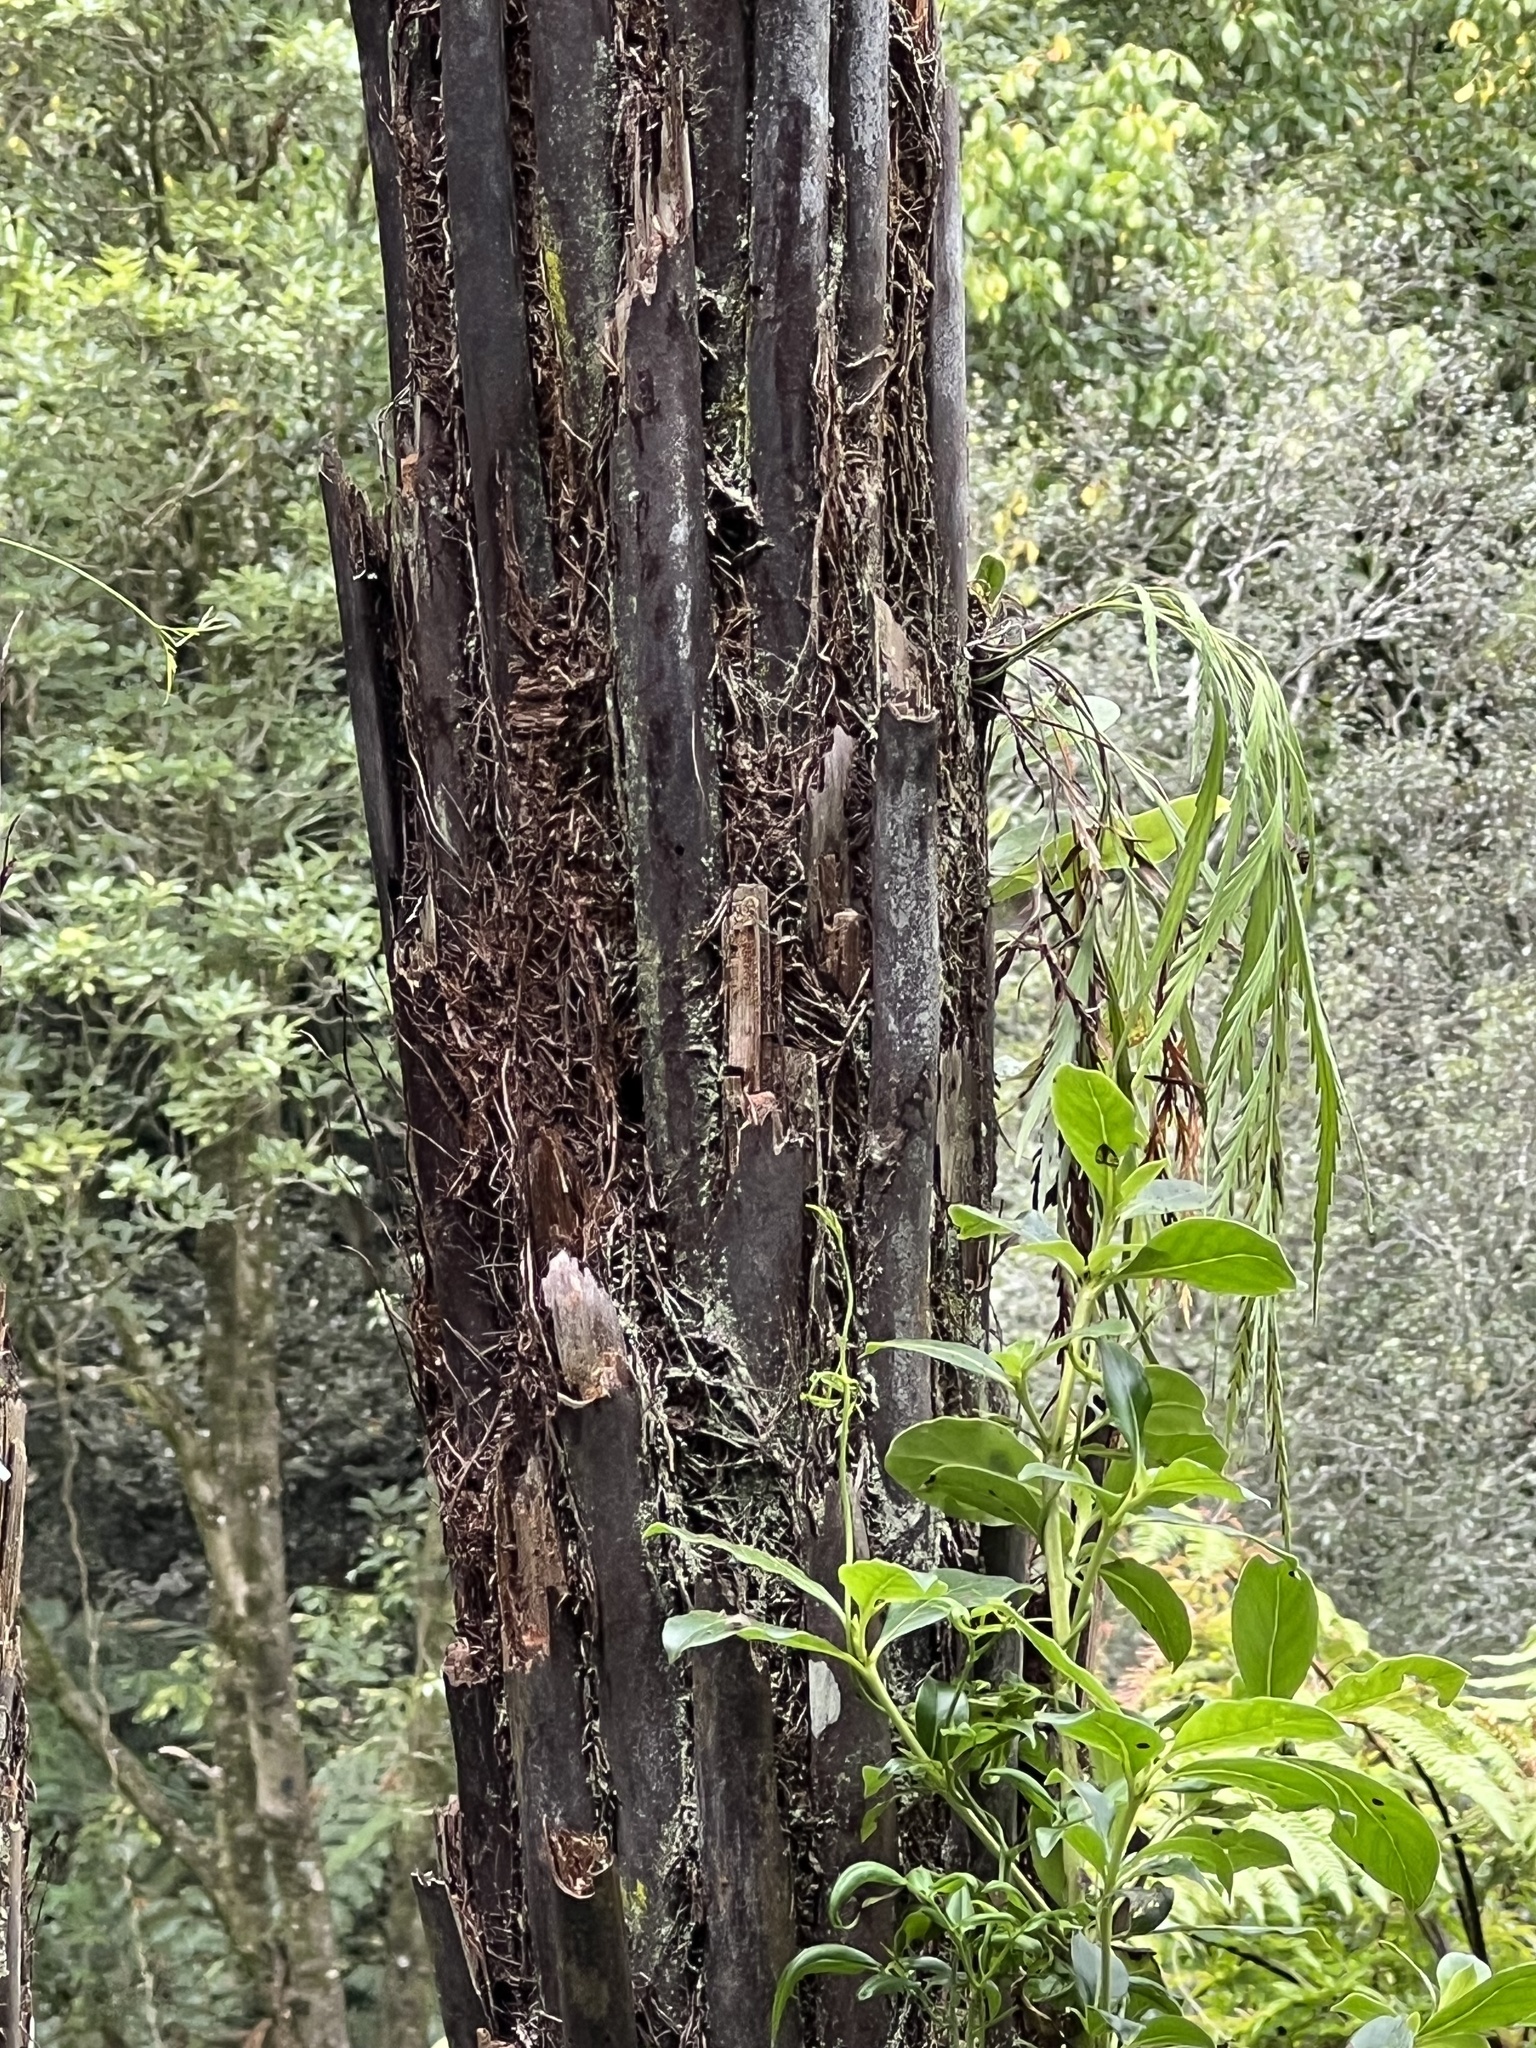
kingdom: Plantae
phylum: Tracheophyta
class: Polypodiopsida
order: Polypodiales
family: Aspleniaceae
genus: Asplenium
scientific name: Asplenium flaccidum
